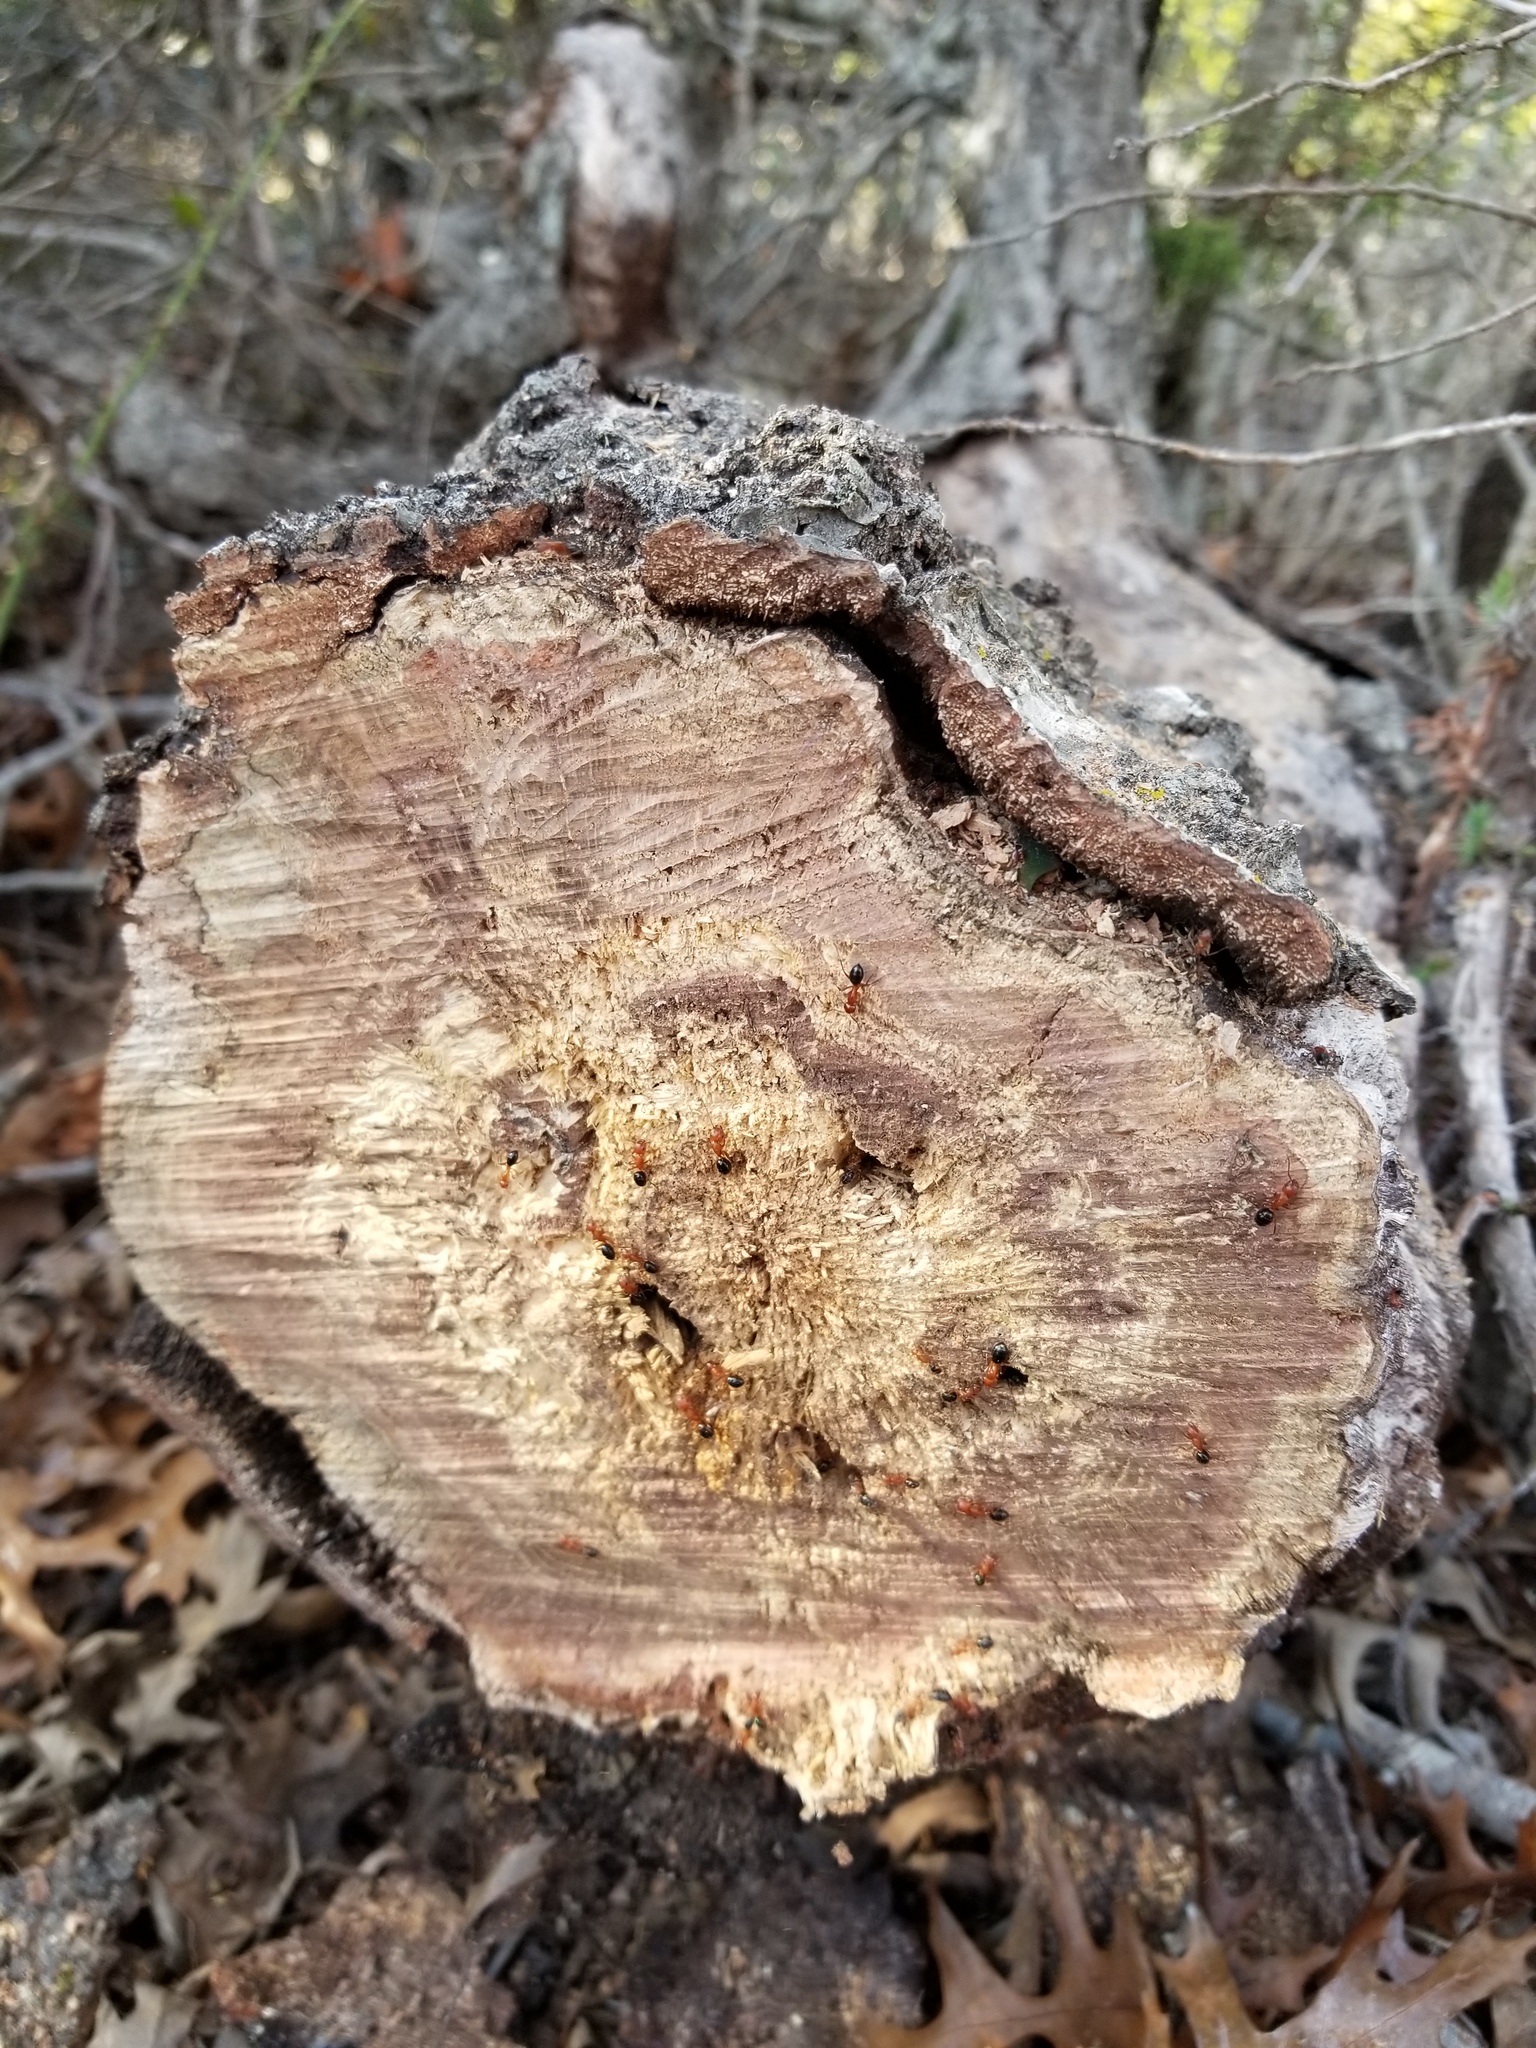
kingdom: Animalia
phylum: Arthropoda
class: Insecta
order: Hymenoptera
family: Formicidae
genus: Solenopsis
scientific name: Solenopsis invicta
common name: Red imported fire ant
